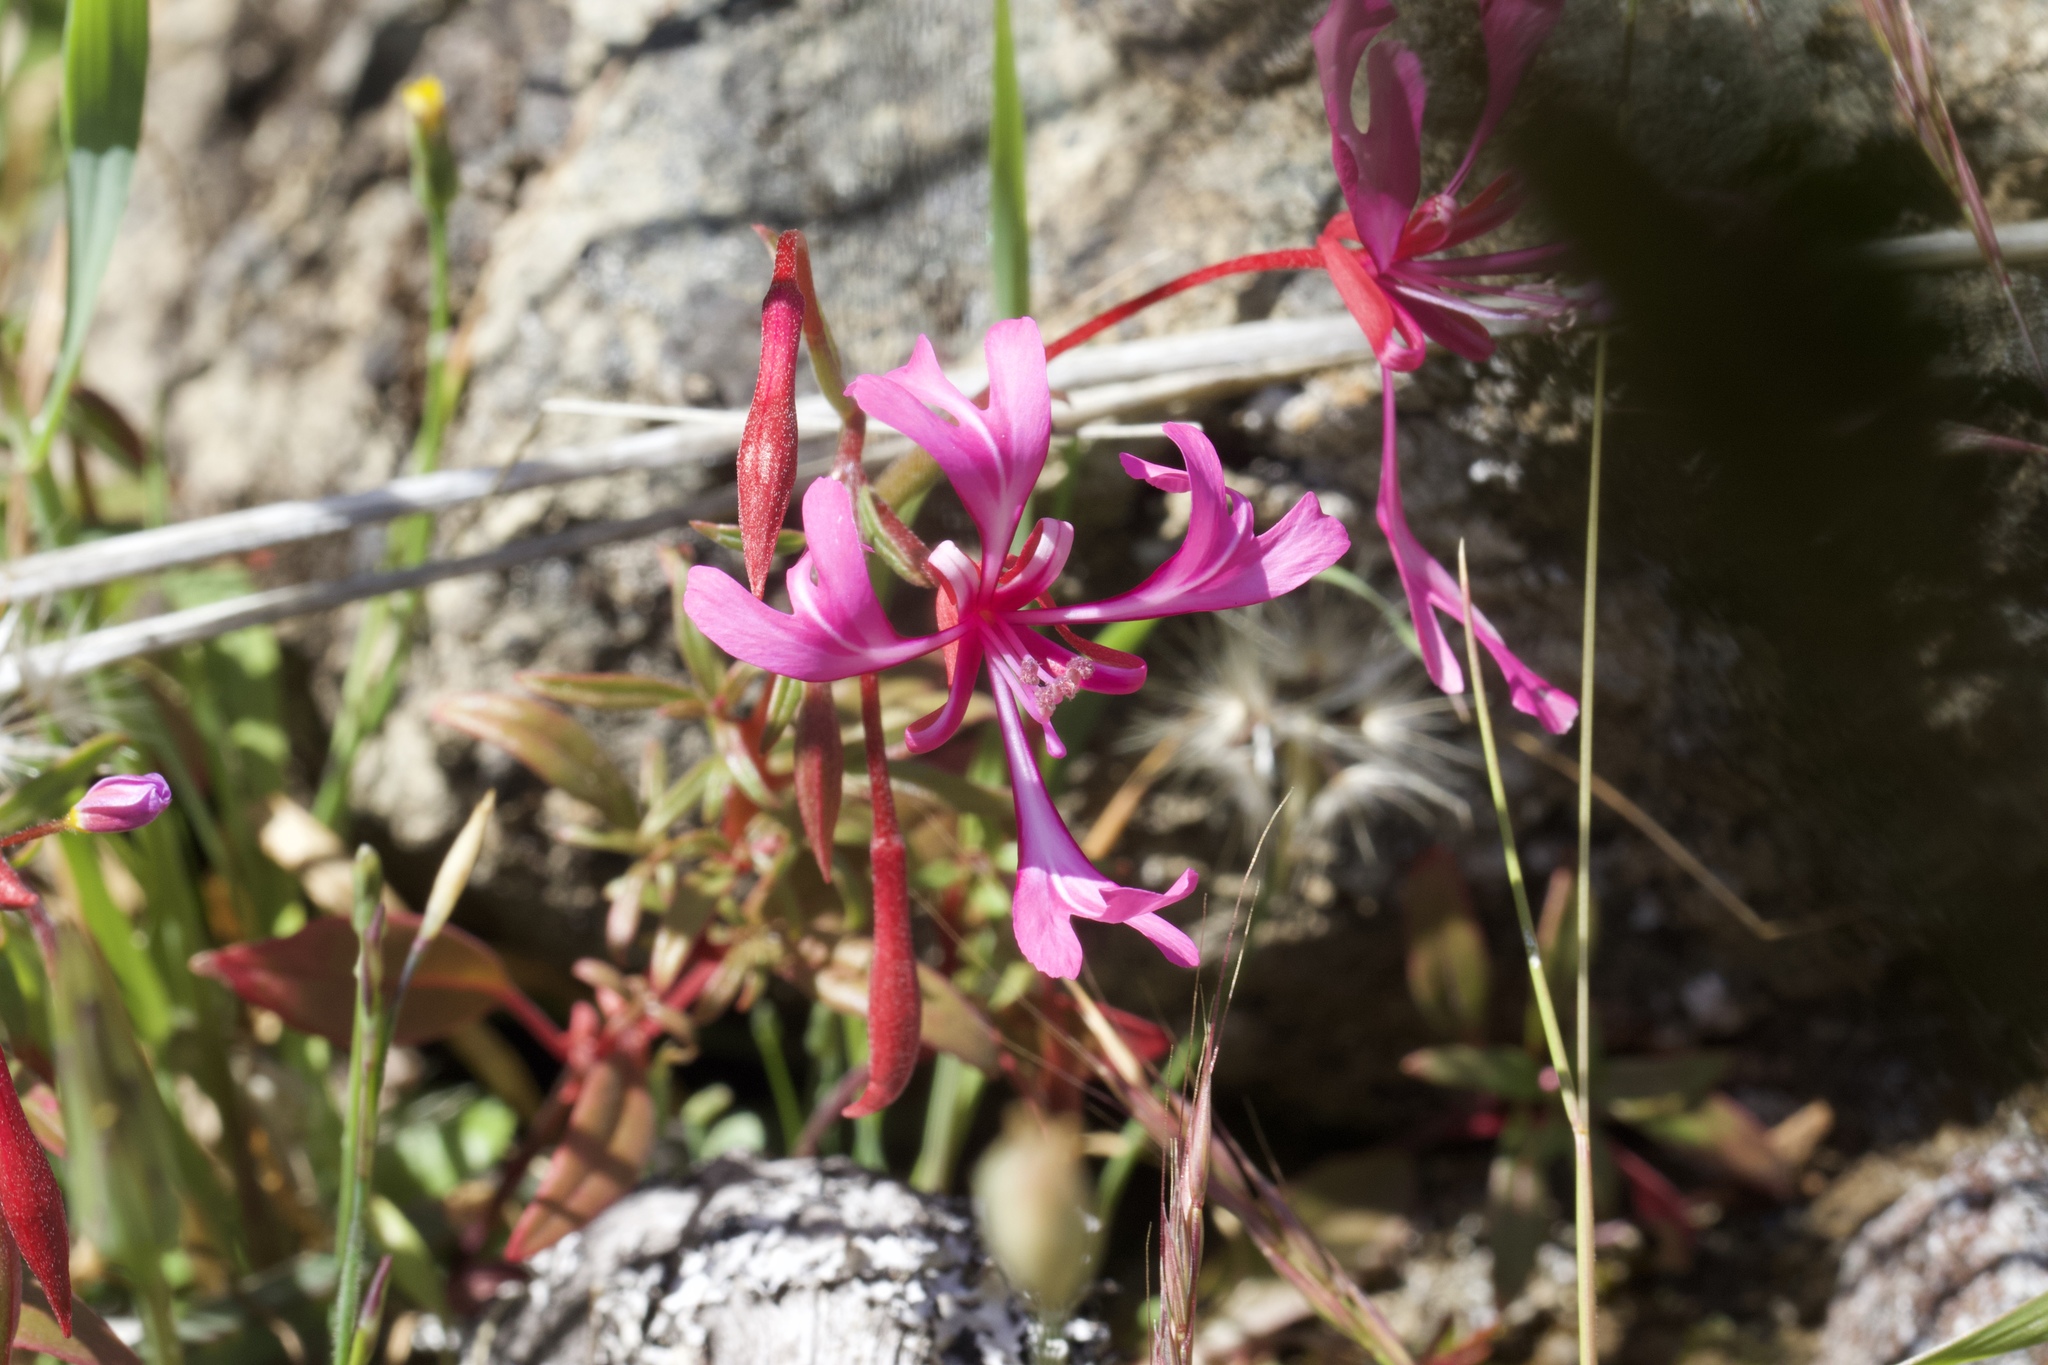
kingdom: Plantae
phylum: Tracheophyta
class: Magnoliopsida
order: Myrtales
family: Onagraceae
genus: Clarkia
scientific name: Clarkia concinna
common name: Red-ribbons
